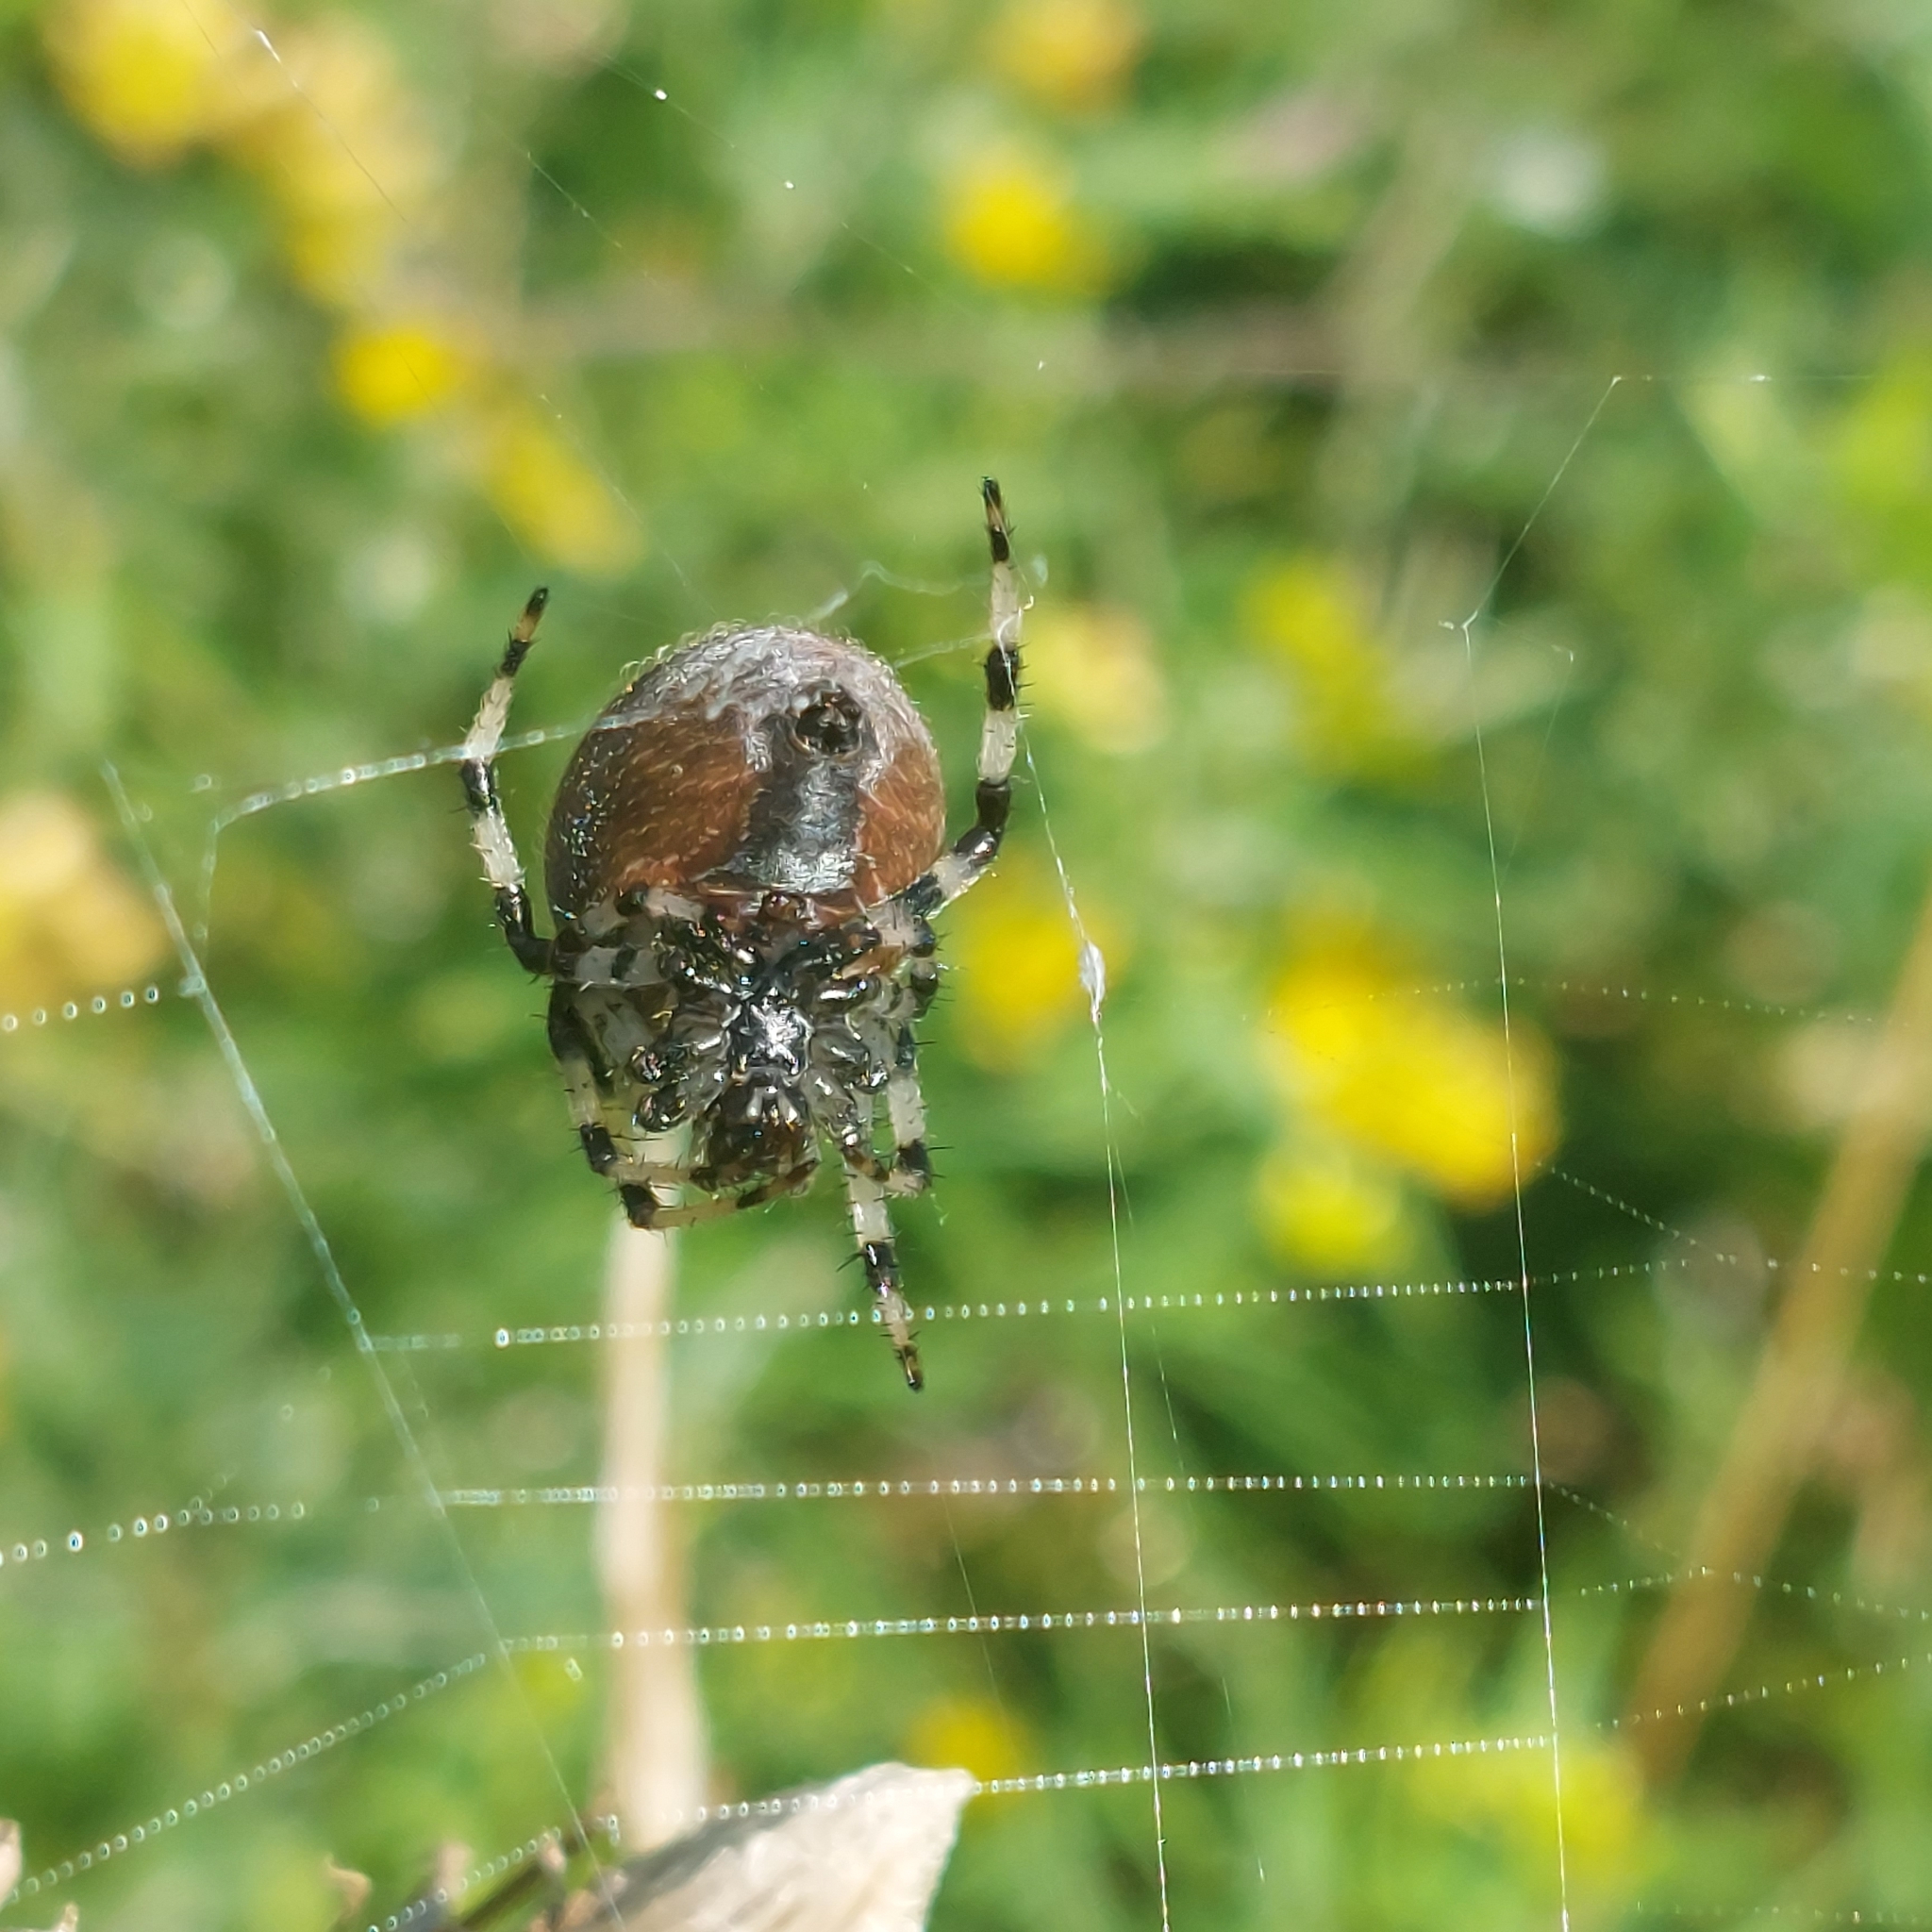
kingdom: Animalia
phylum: Arthropoda
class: Arachnida
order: Araneae
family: Araneidae
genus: Araneus
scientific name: Araneus trifolium
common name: Shamrock orbweaver
